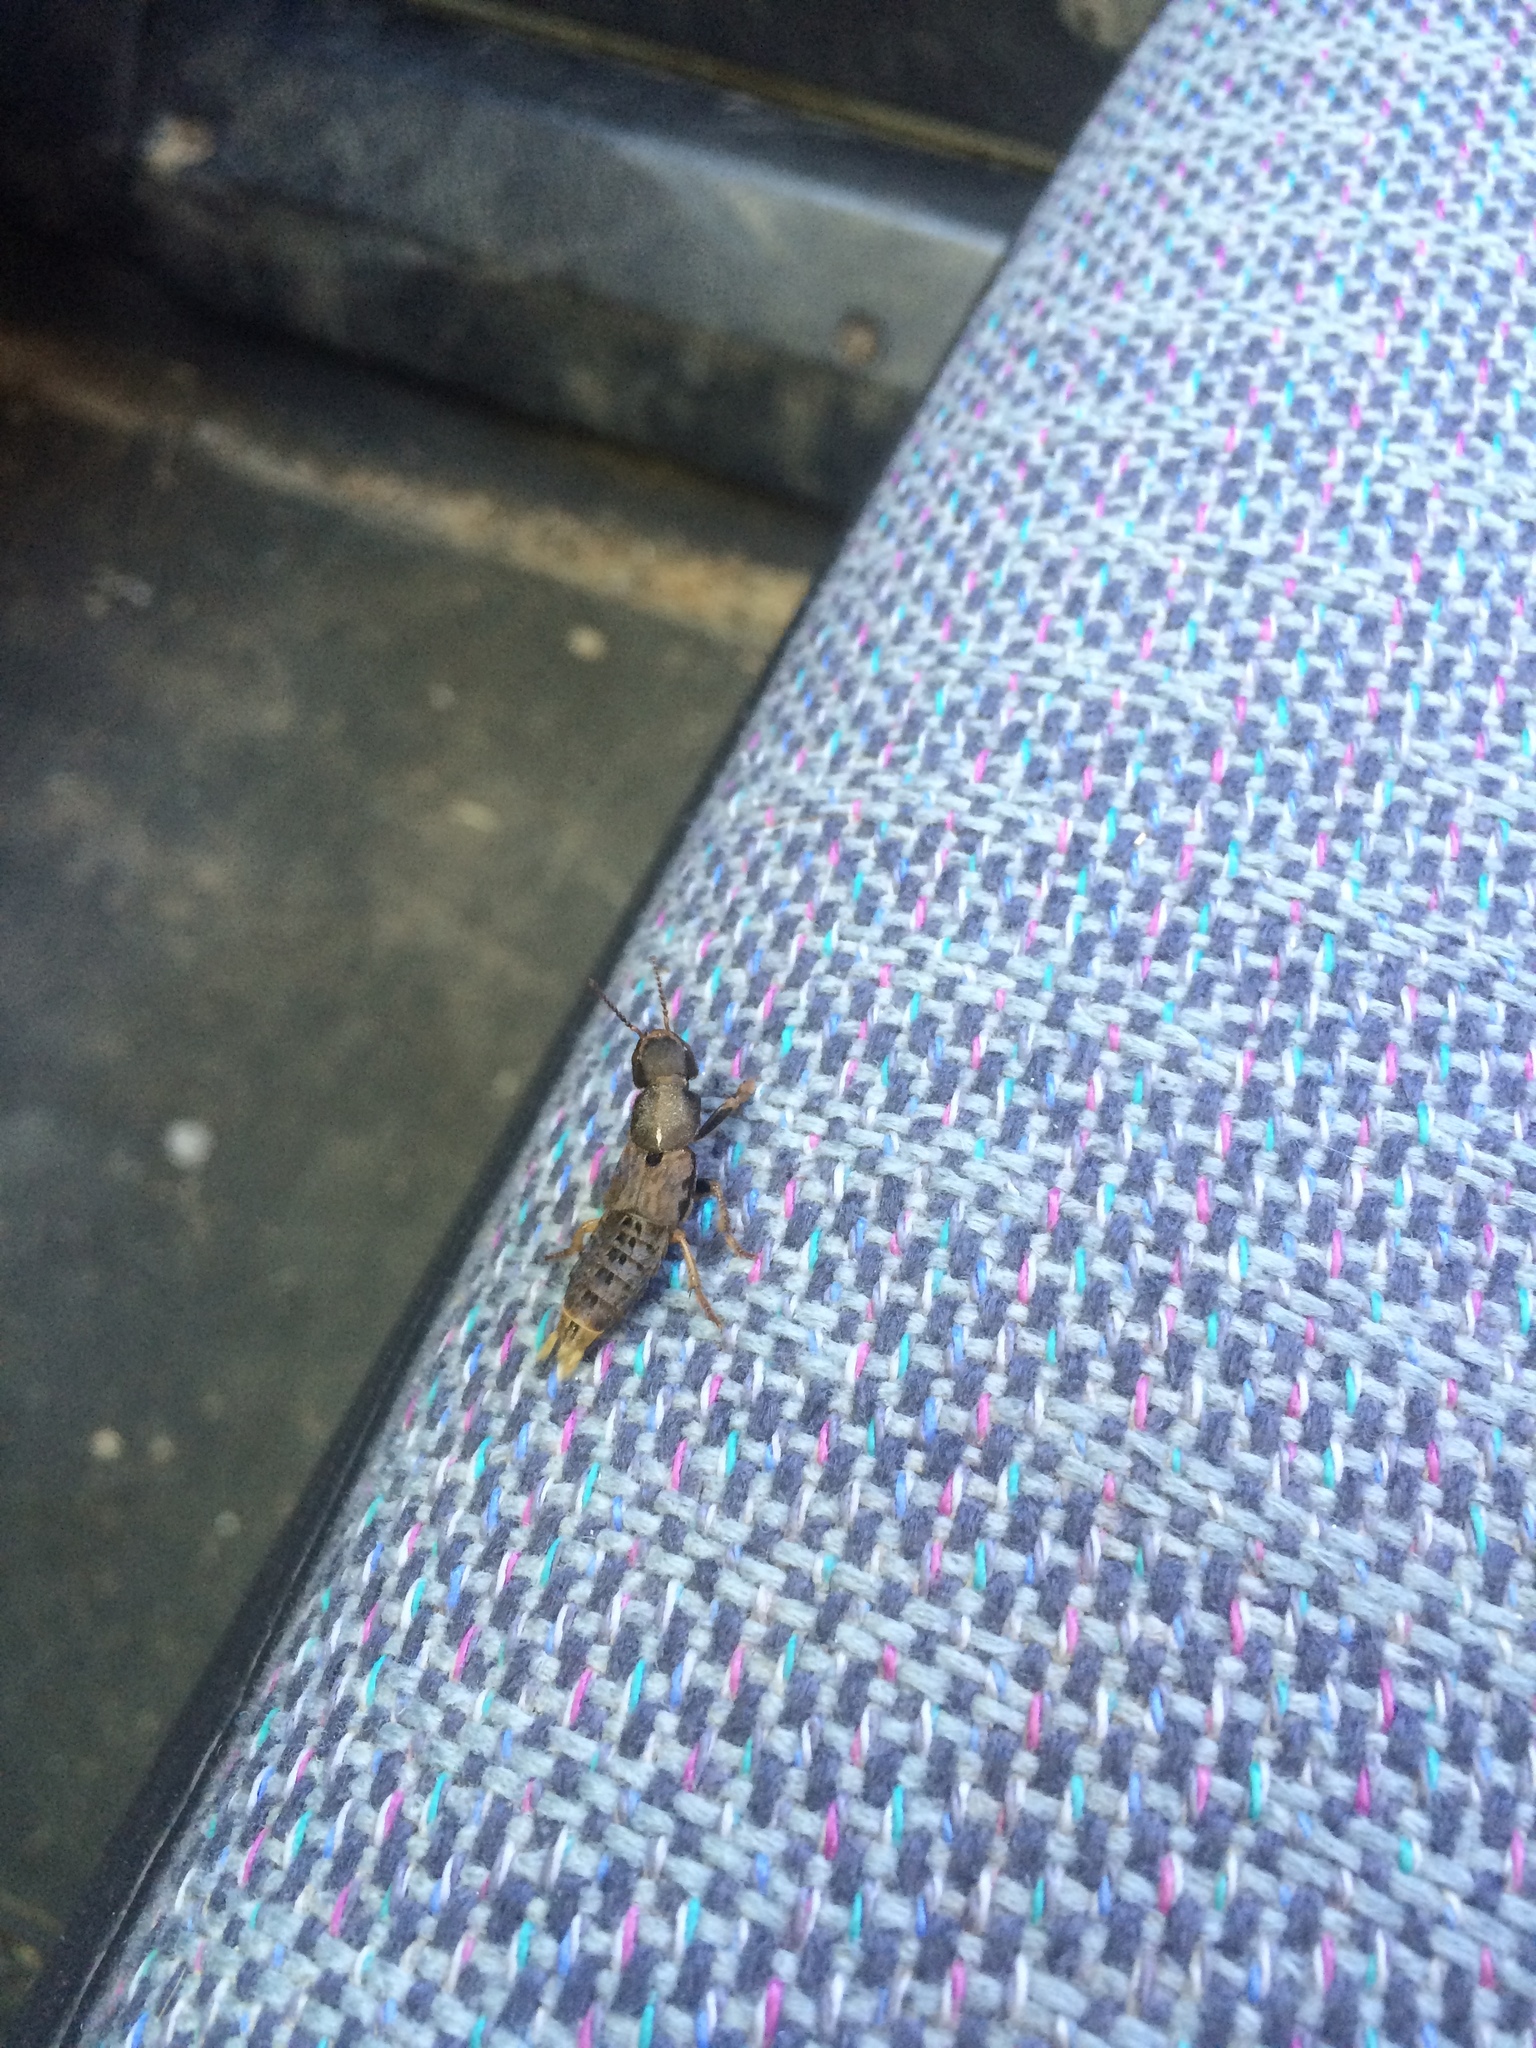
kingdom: Animalia
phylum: Arthropoda
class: Insecta
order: Coleoptera
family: Staphylinidae
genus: Platydracus
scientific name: Platydracus maculosus
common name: Brown rove beetle
